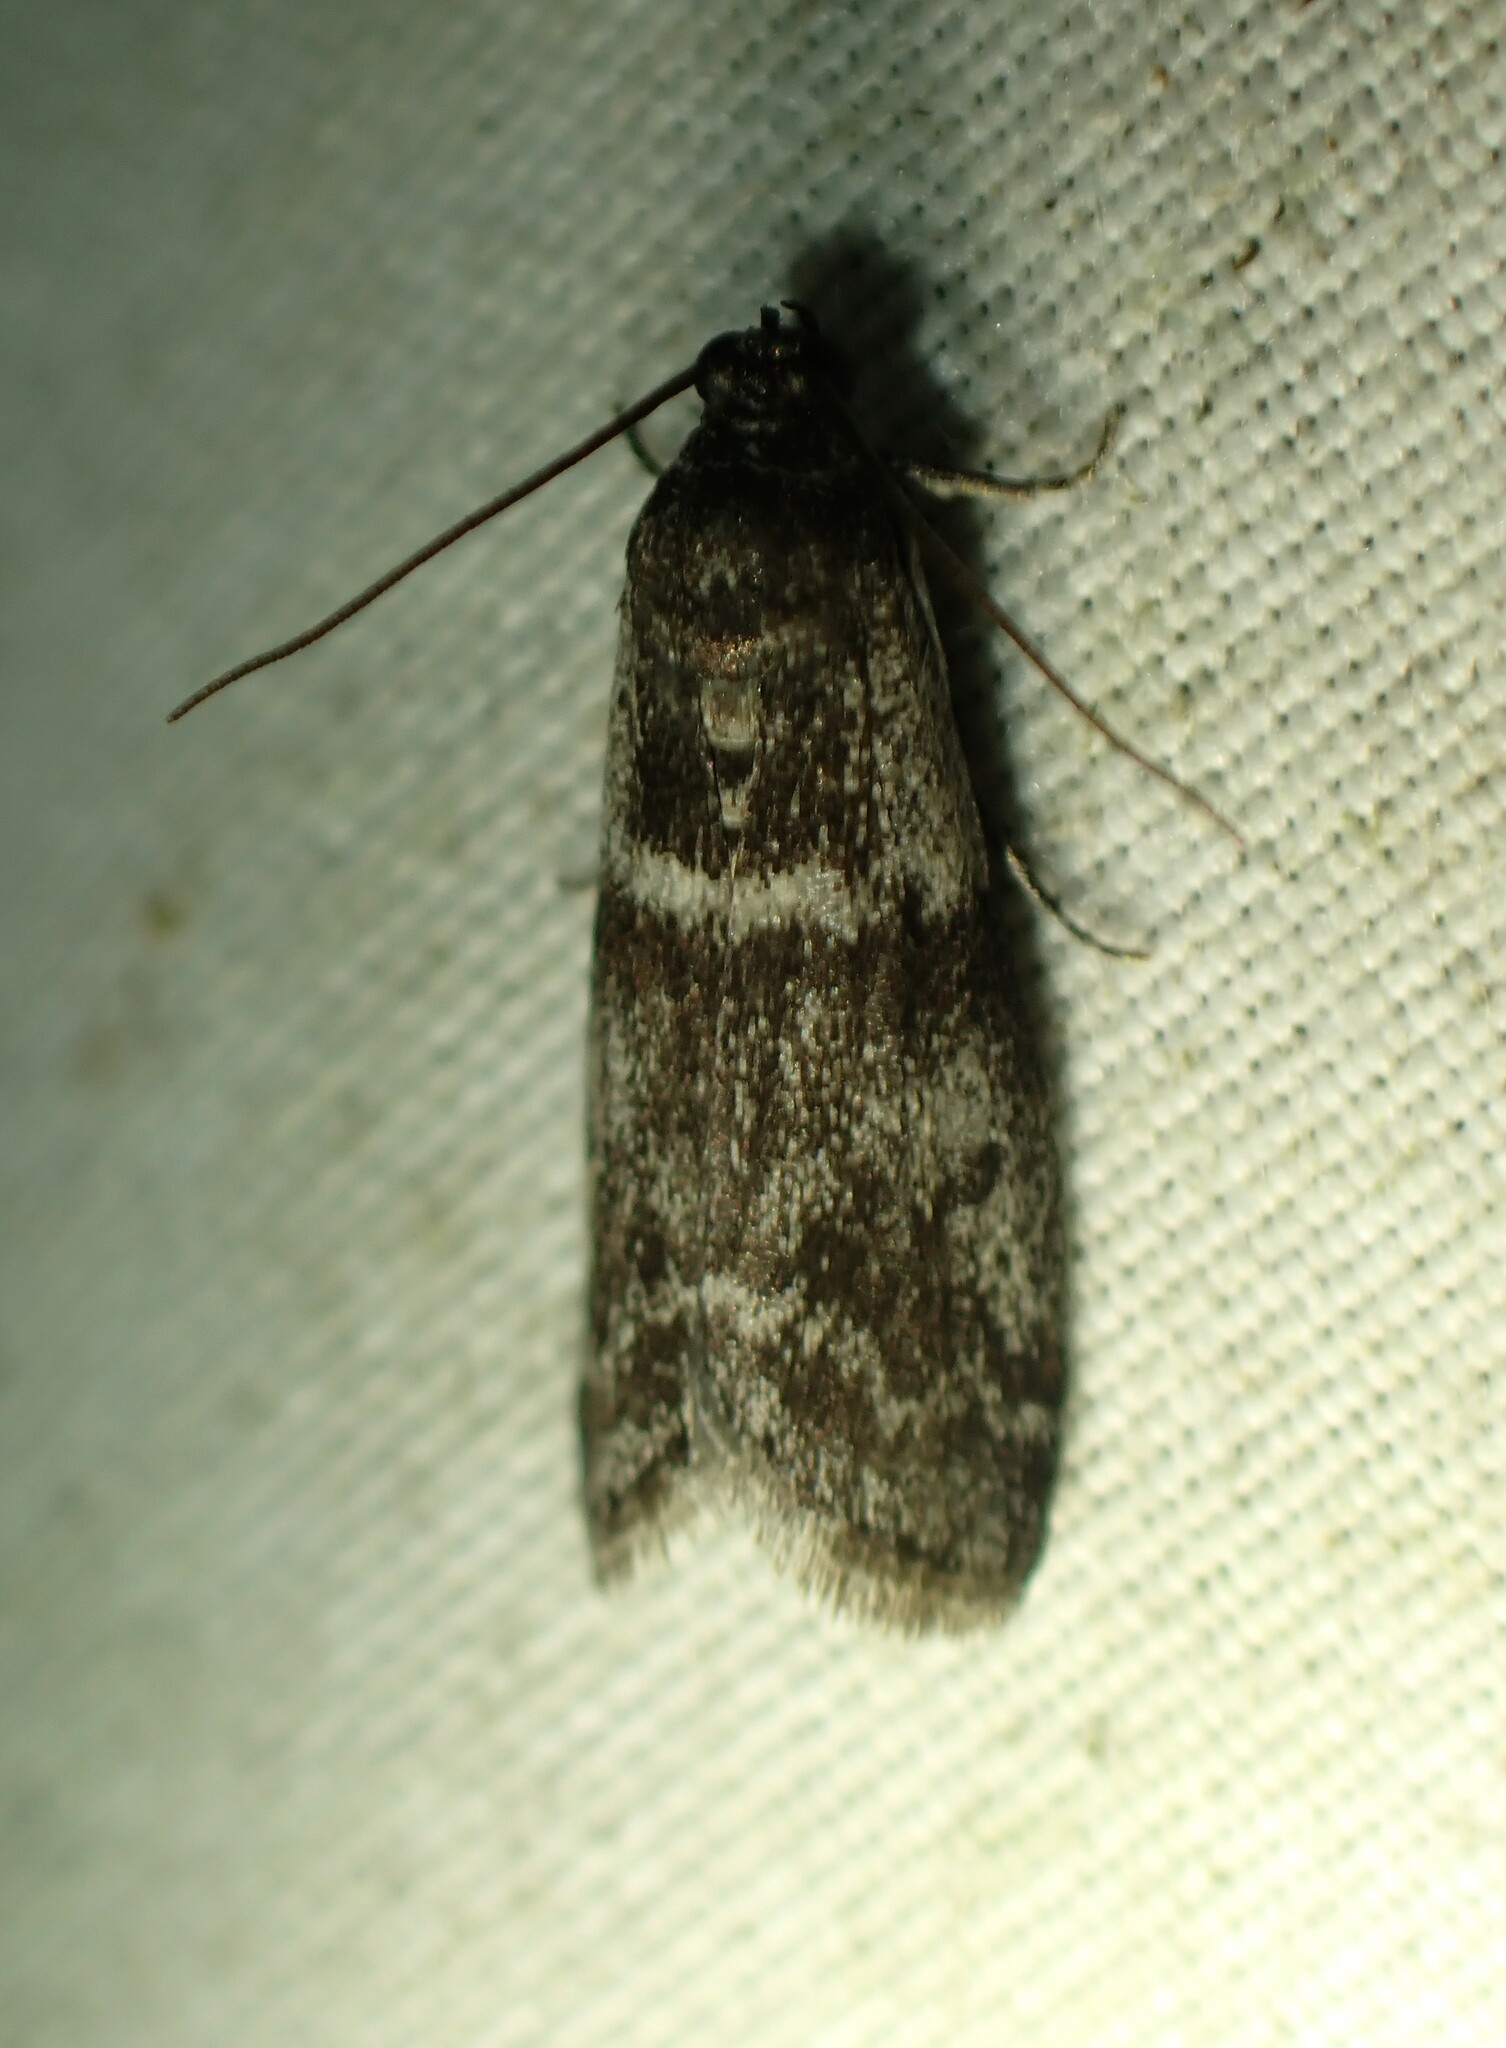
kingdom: Animalia
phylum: Arthropoda
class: Insecta
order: Lepidoptera
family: Pyralidae
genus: Apomyelois
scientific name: Apomyelois bistriatella
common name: Heath knot-horn
